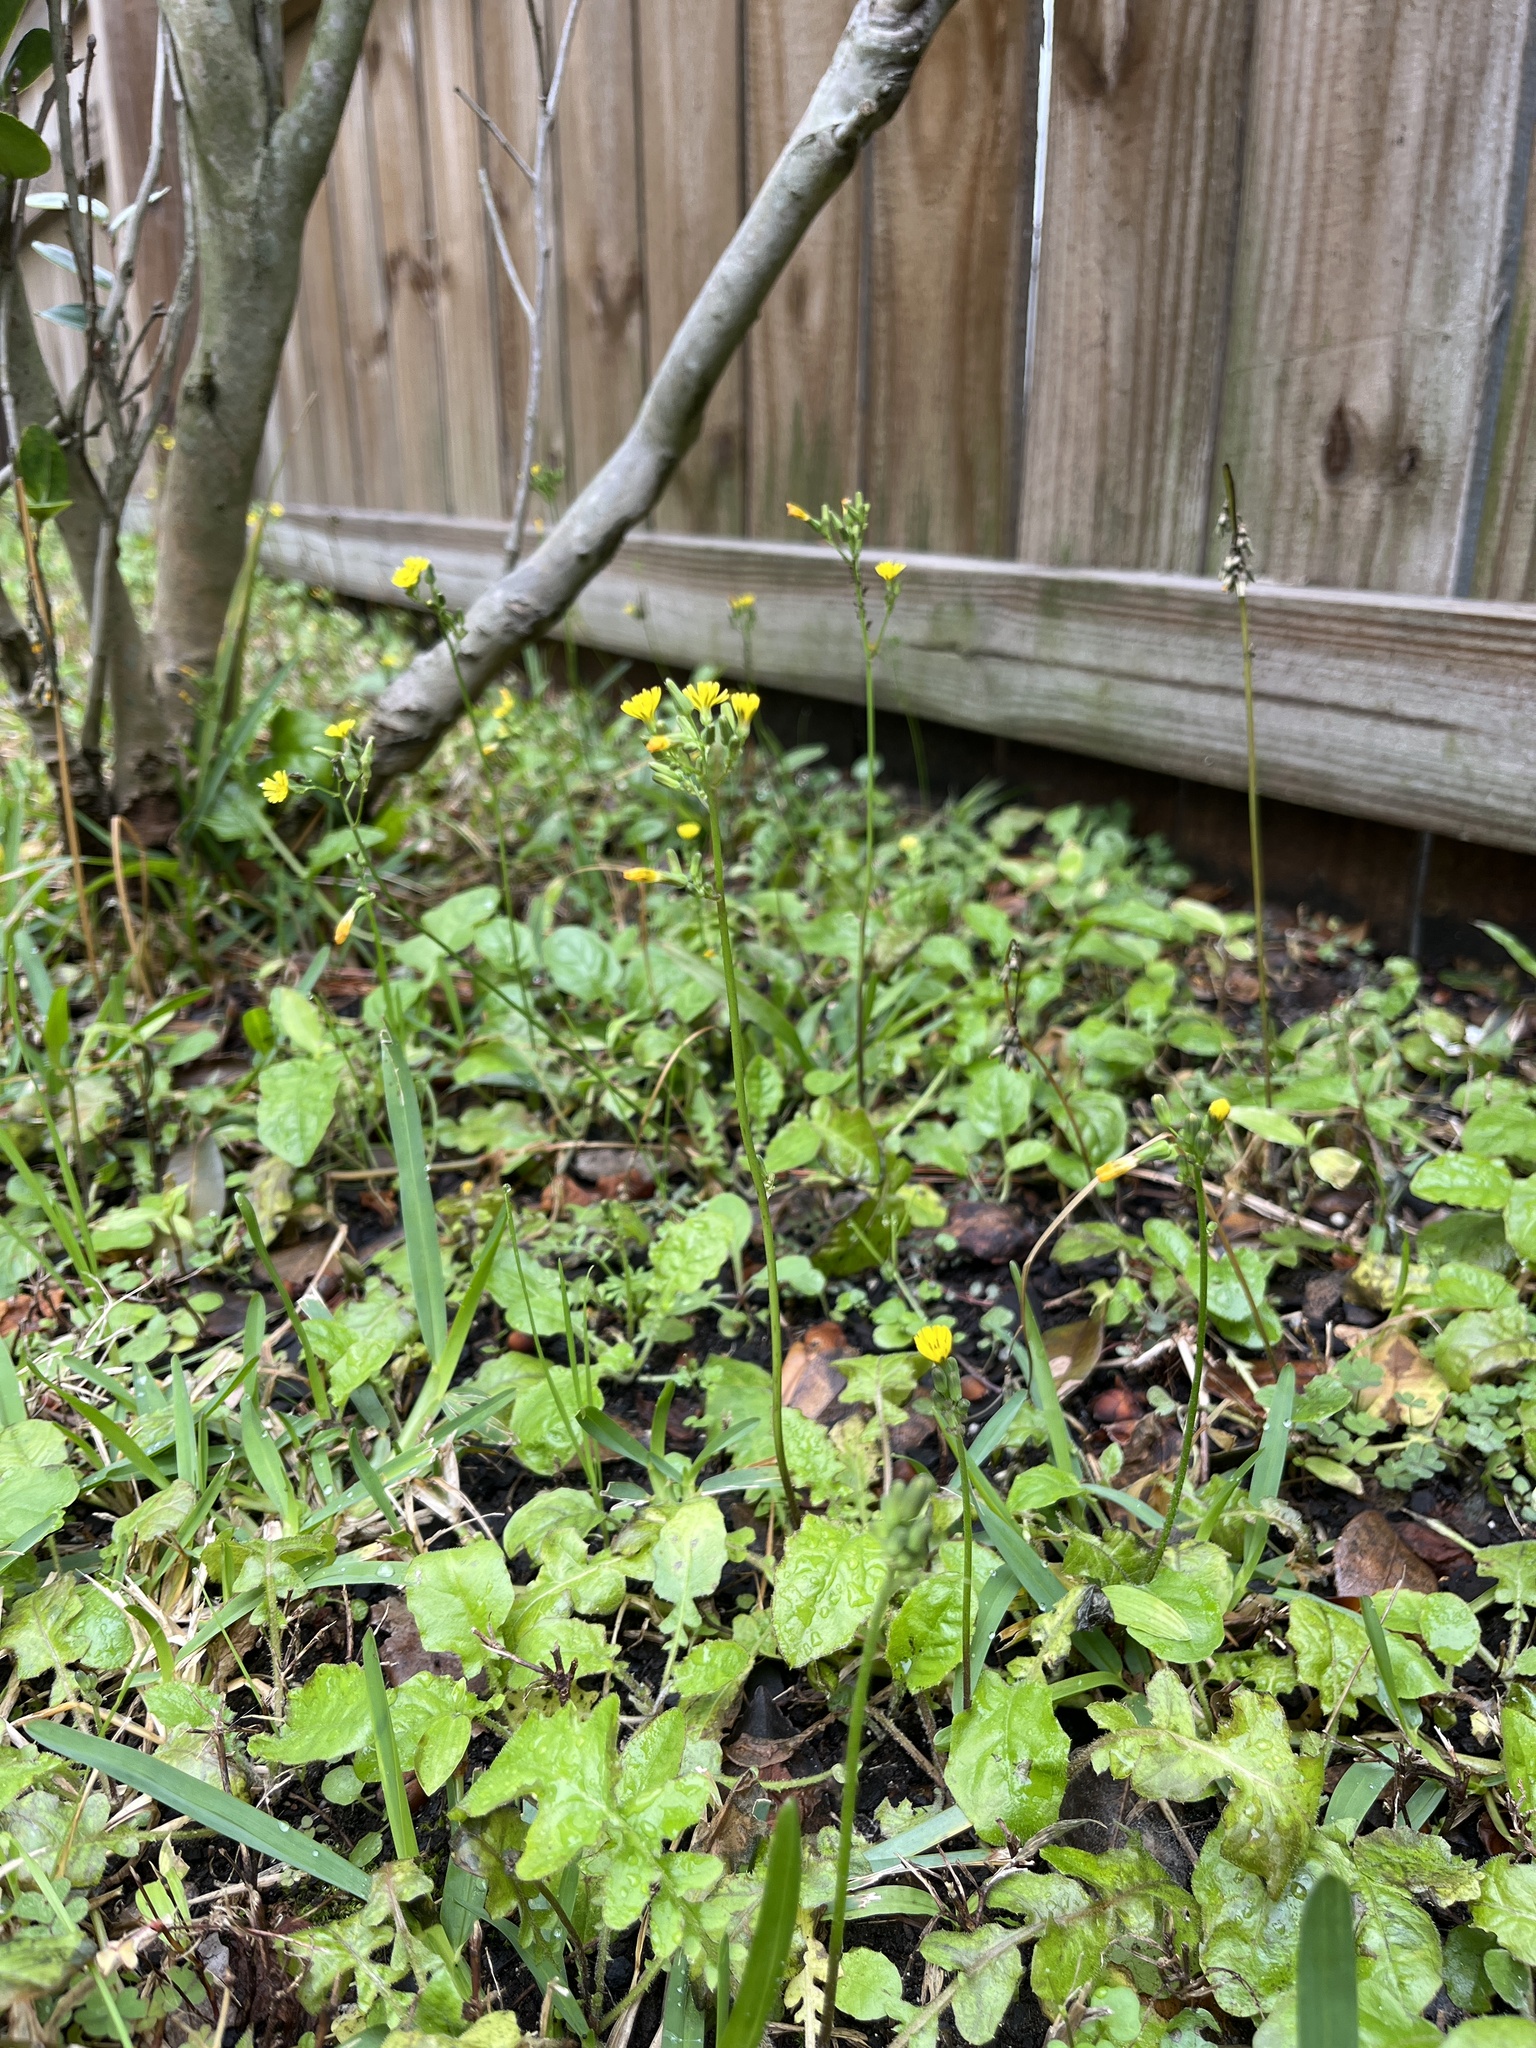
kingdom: Plantae
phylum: Tracheophyta
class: Magnoliopsida
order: Asterales
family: Asteraceae
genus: Youngia
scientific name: Youngia japonica
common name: Oriental false hawksbeard
